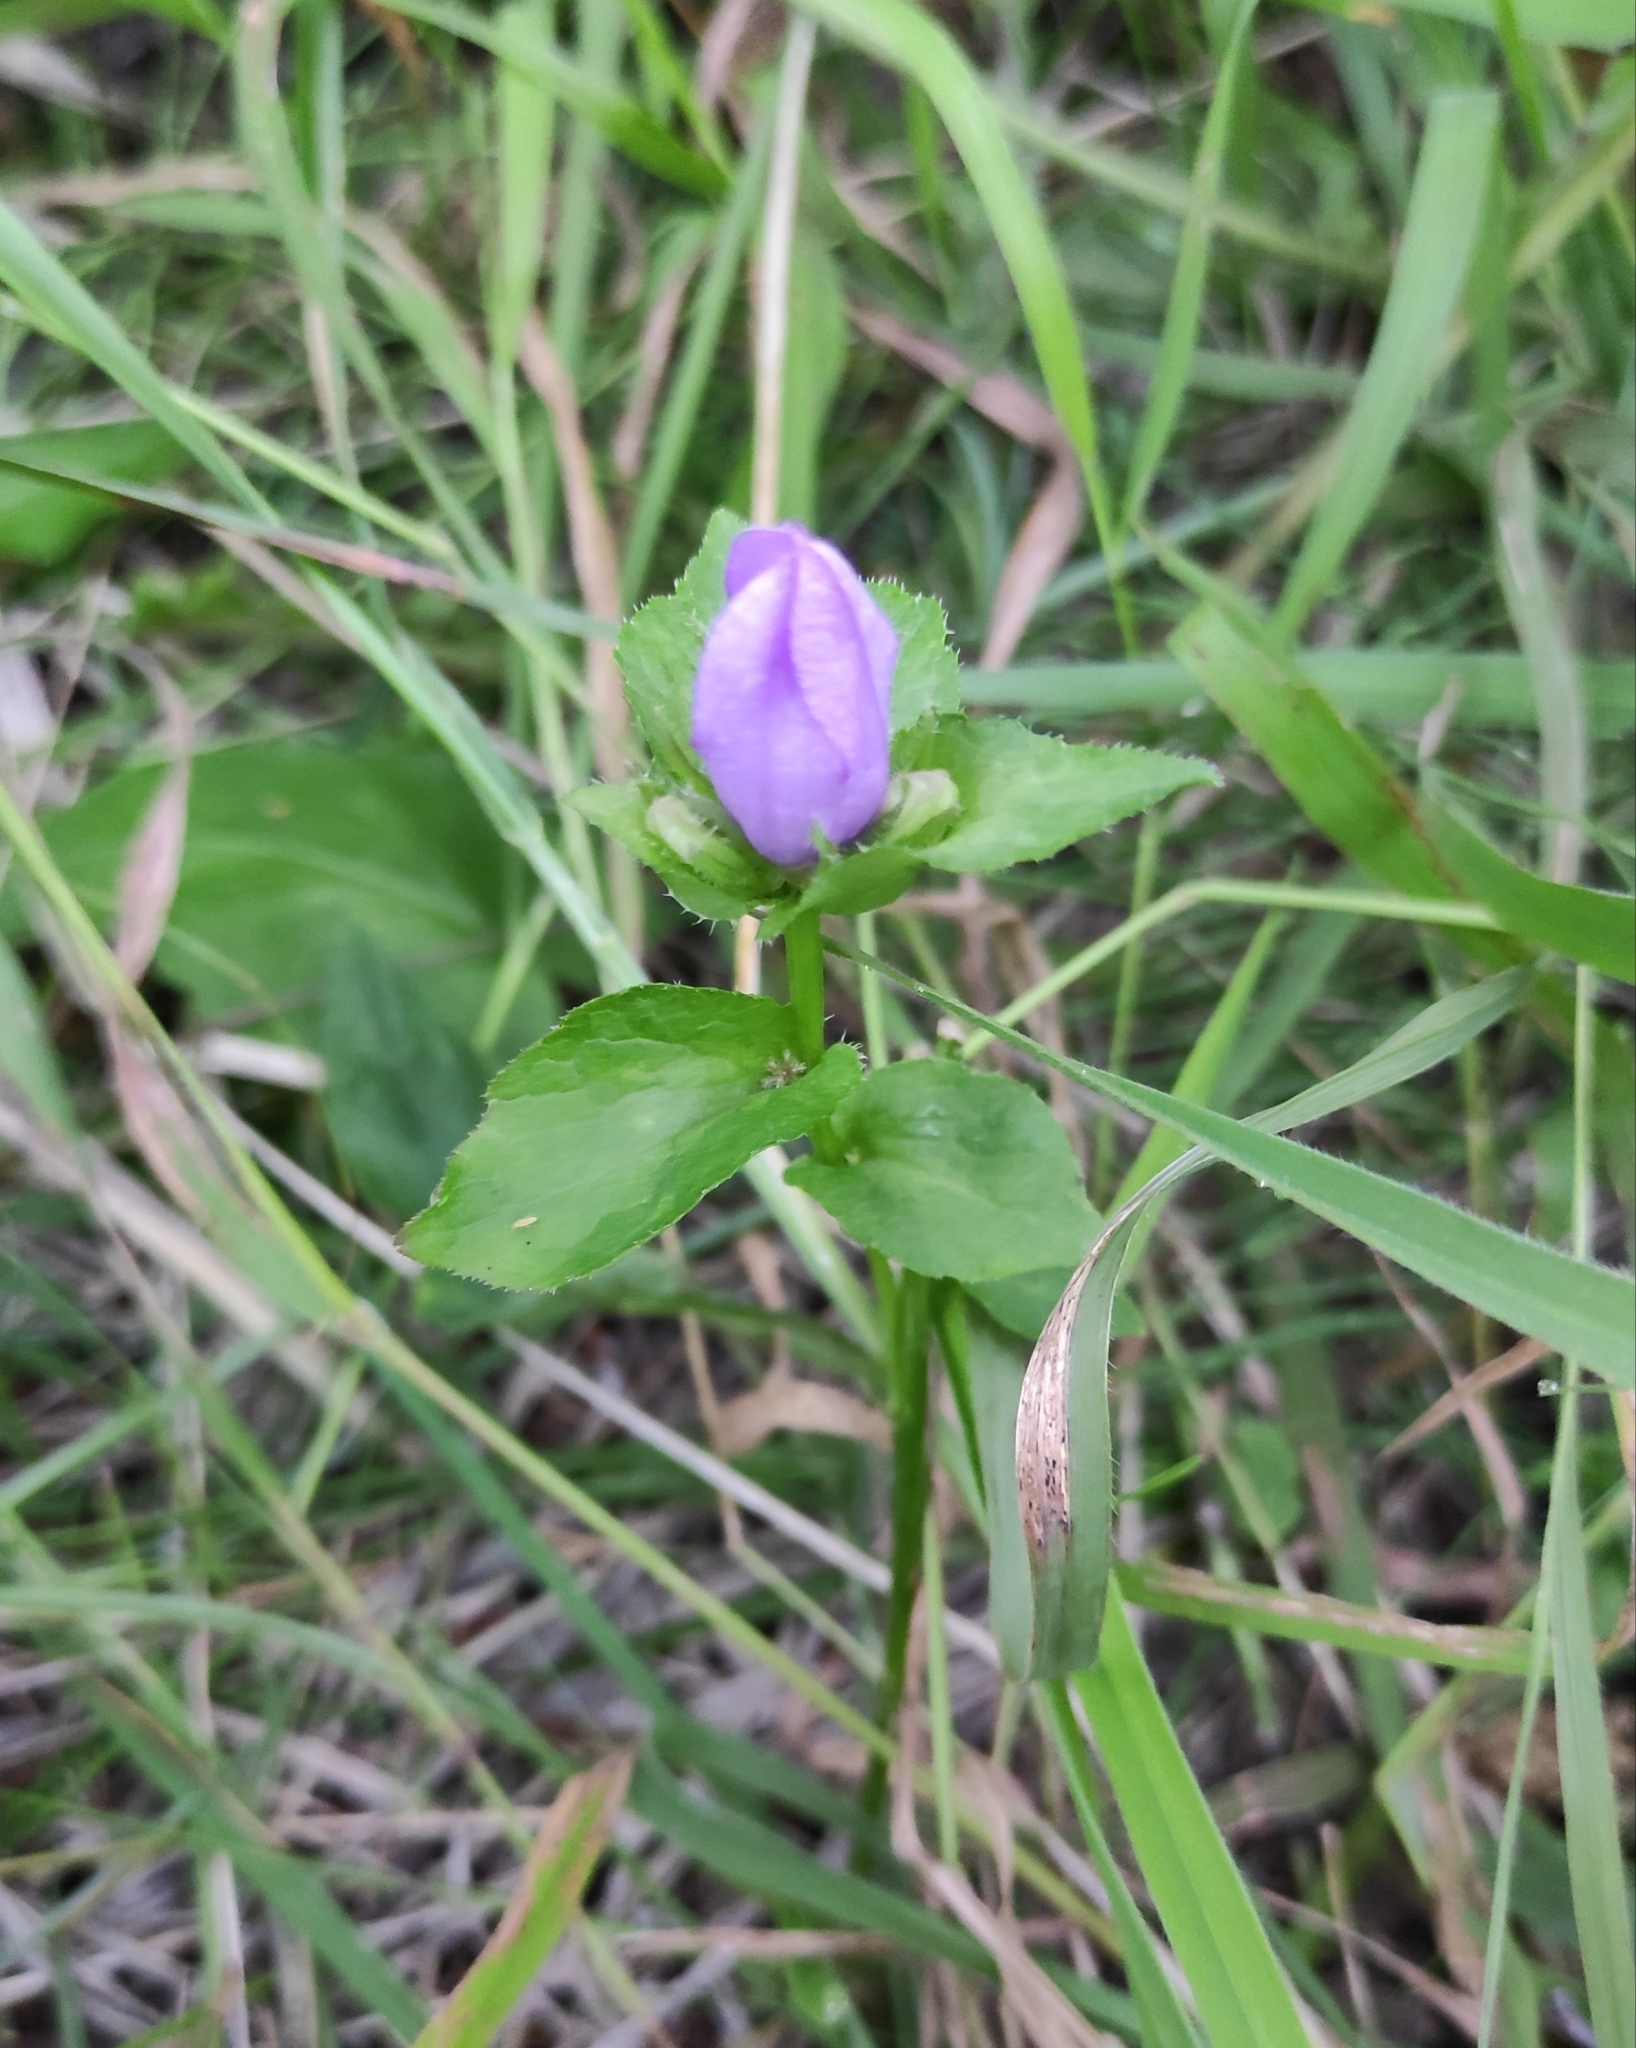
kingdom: Plantae
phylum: Tracheophyta
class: Magnoliopsida
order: Asterales
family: Campanulaceae
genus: Campanula
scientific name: Campanula glomerata
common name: Clustered bellflower
